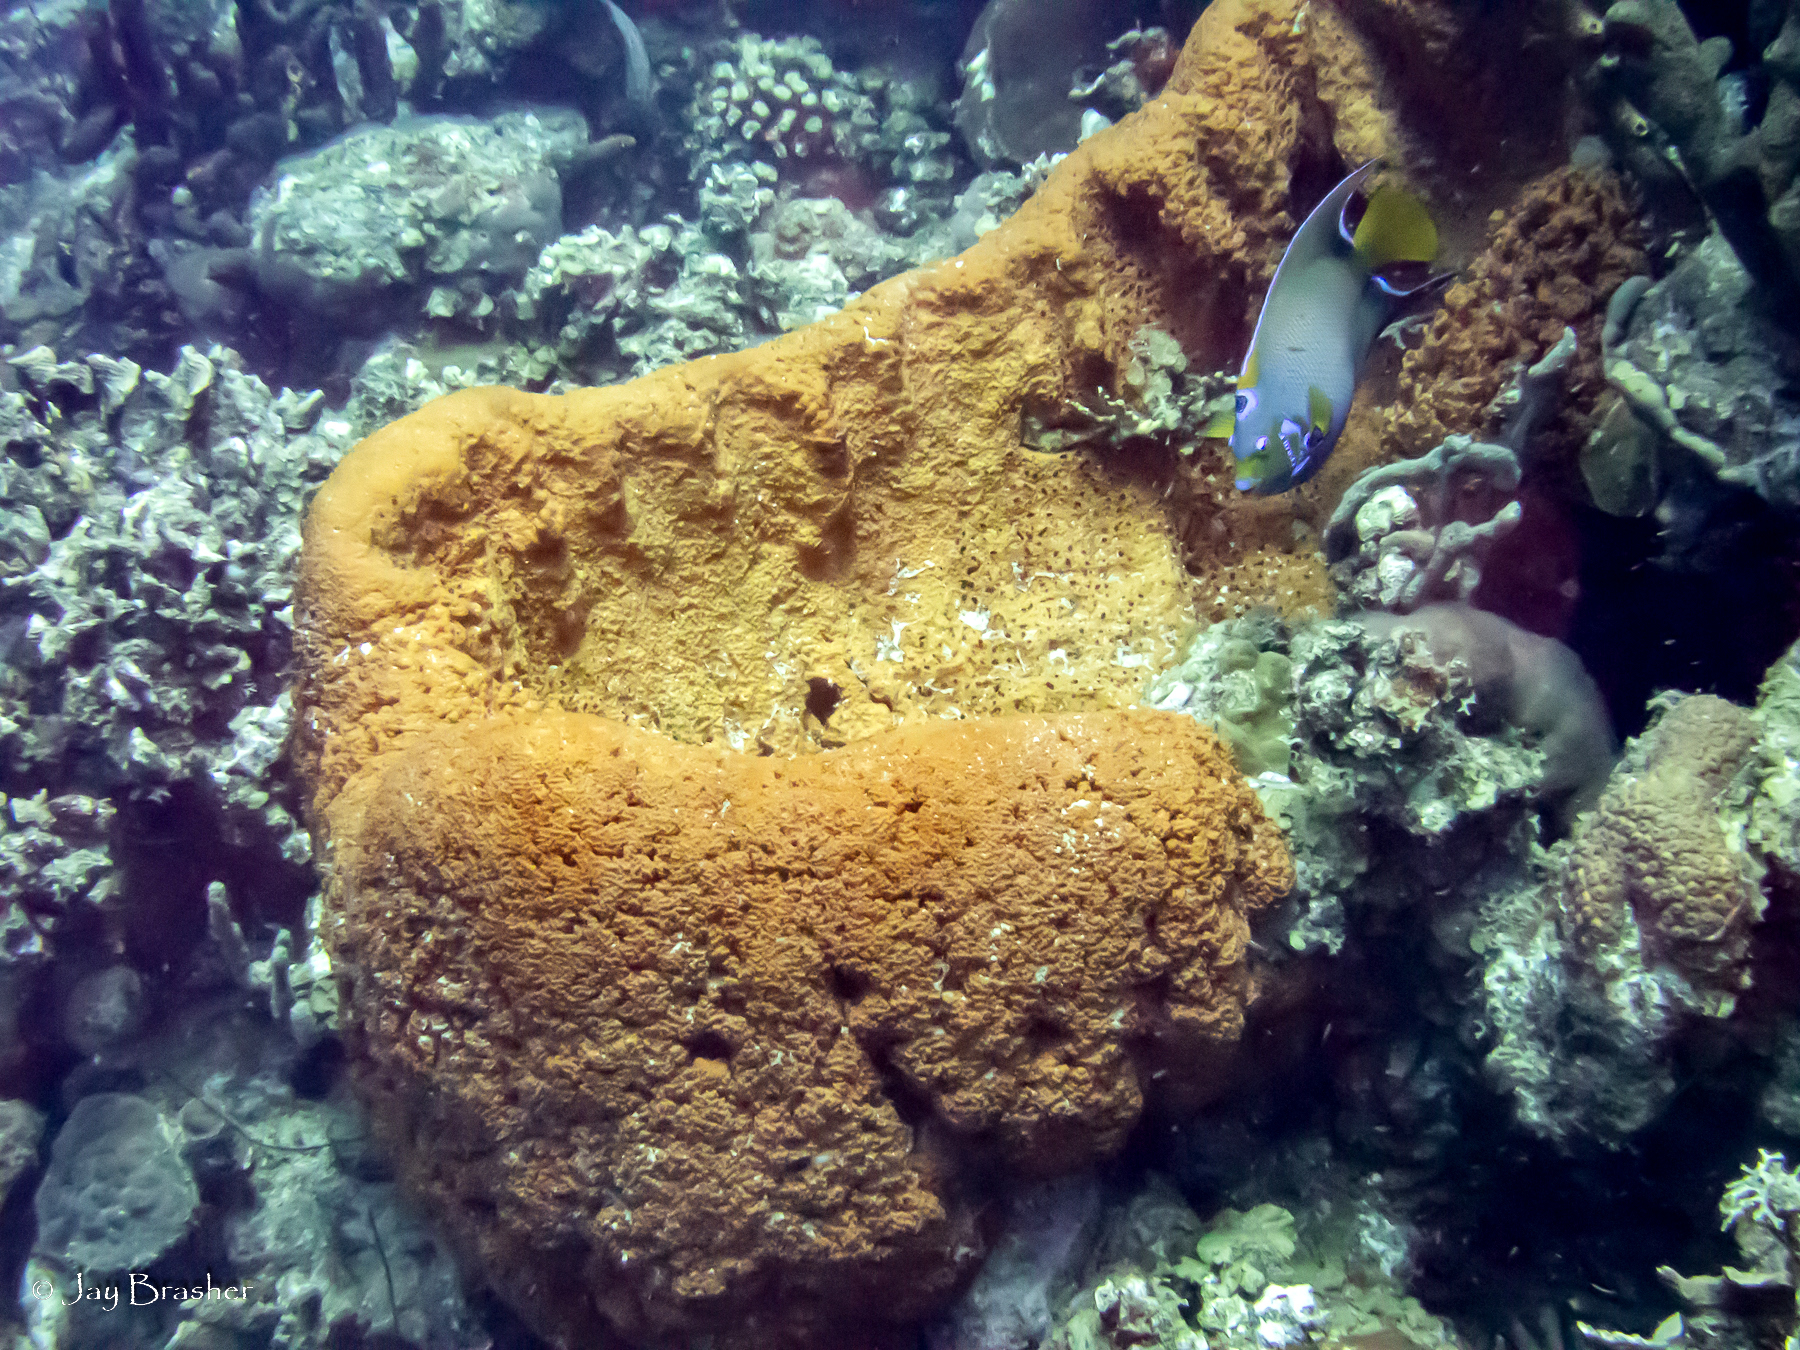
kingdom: Animalia
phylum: Porifera
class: Demospongiae
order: Agelasida
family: Agelasidae
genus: Agelas
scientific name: Agelas clathrodes
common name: Orange elephant ear sponge
